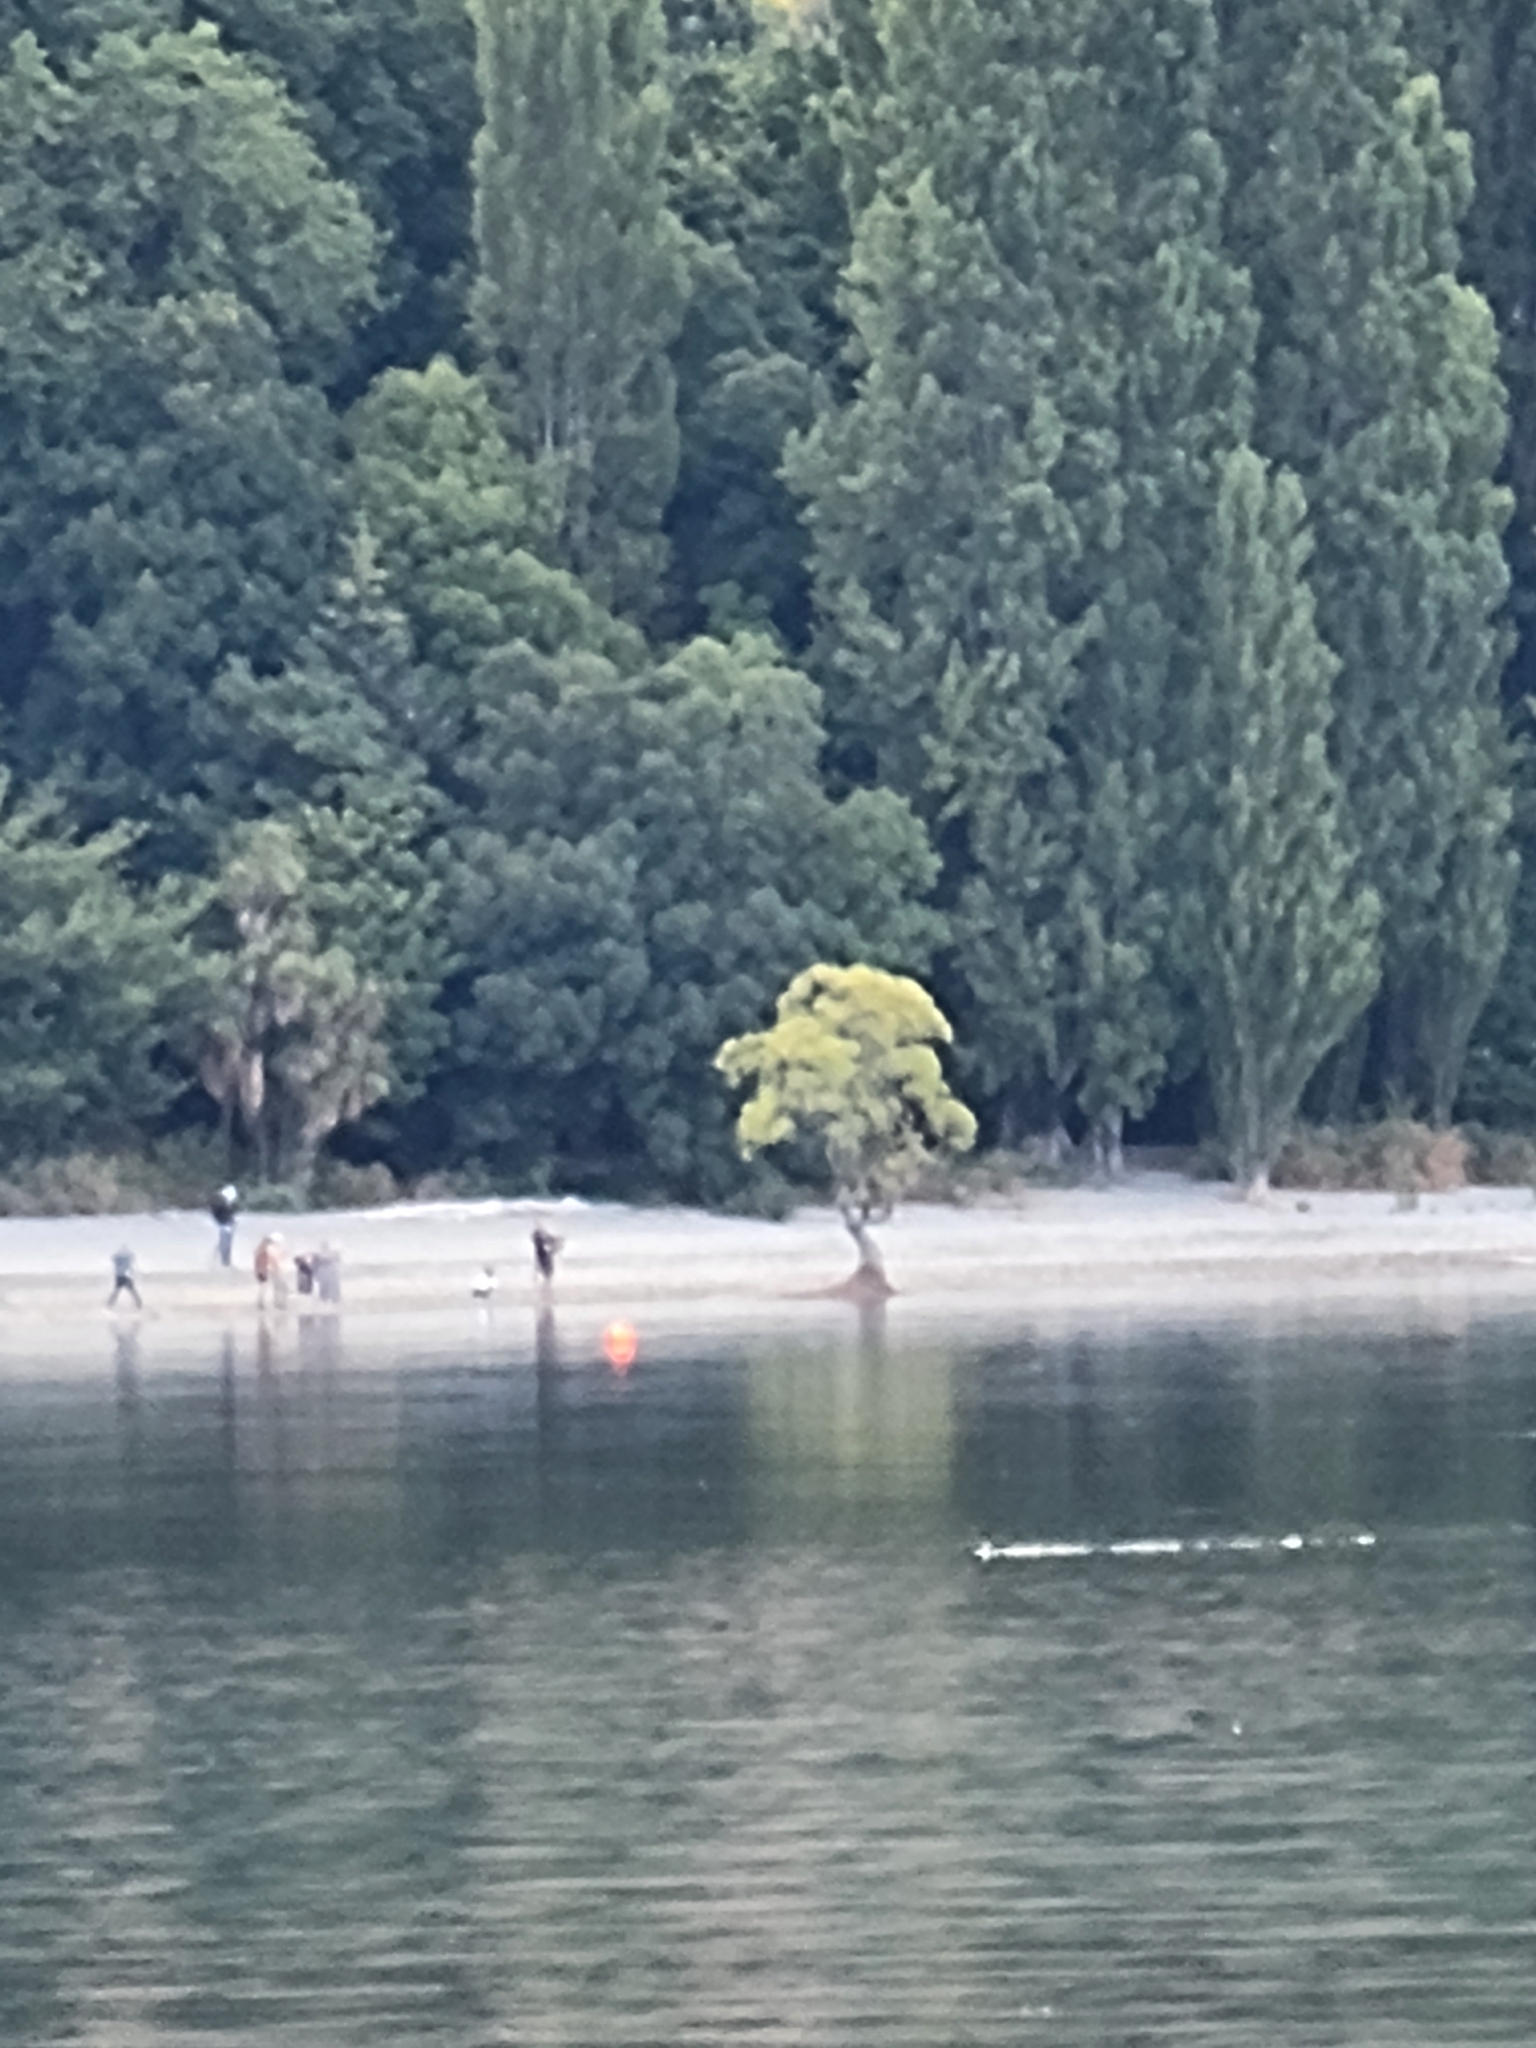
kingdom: Plantae
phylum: Tracheophyta
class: Magnoliopsida
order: Malpighiales
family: Salicaceae
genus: Salix
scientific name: Salix fragilis
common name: Crack willow
